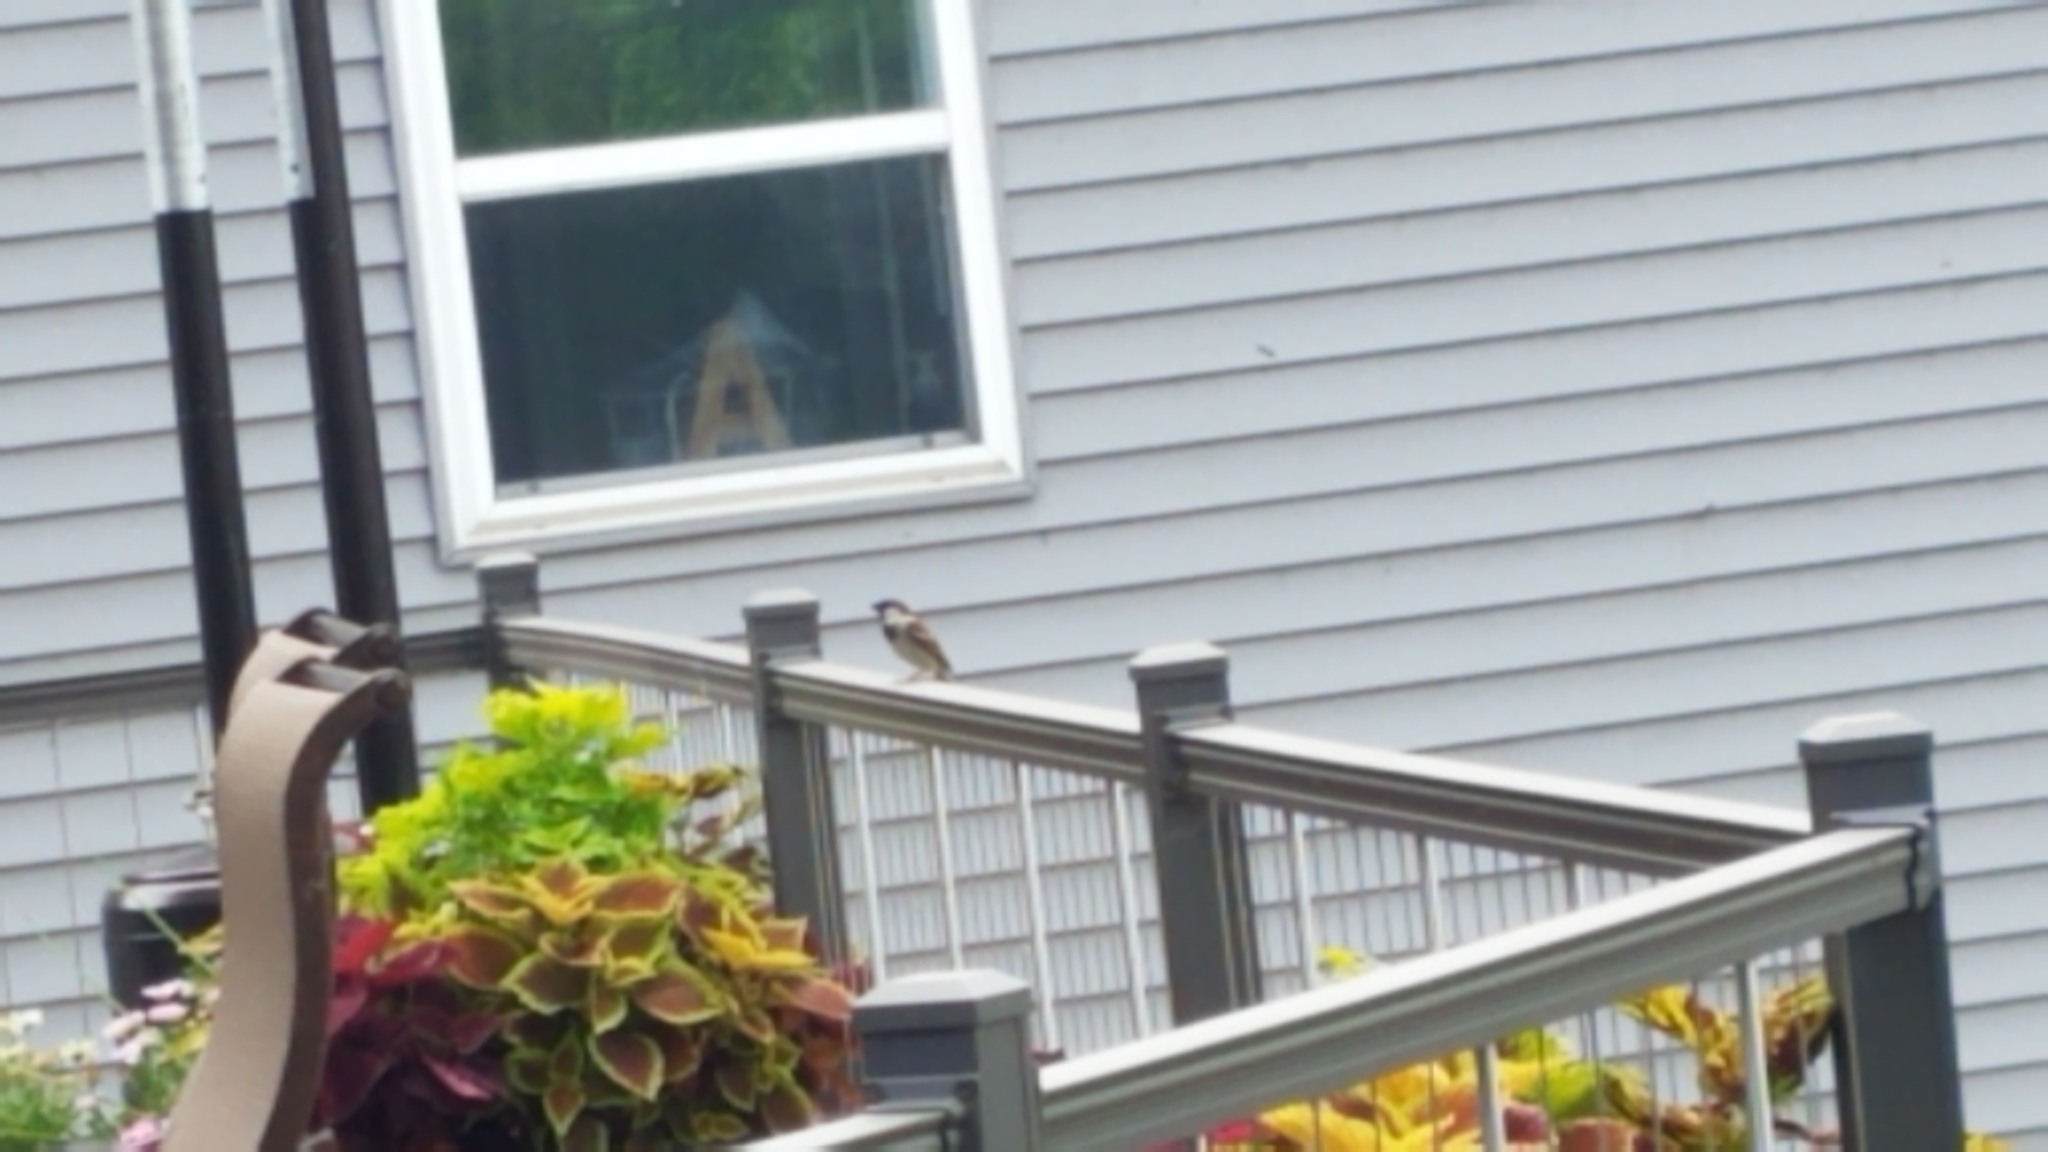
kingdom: Animalia
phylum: Chordata
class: Aves
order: Passeriformes
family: Passeridae
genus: Passer
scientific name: Passer domesticus
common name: House sparrow
